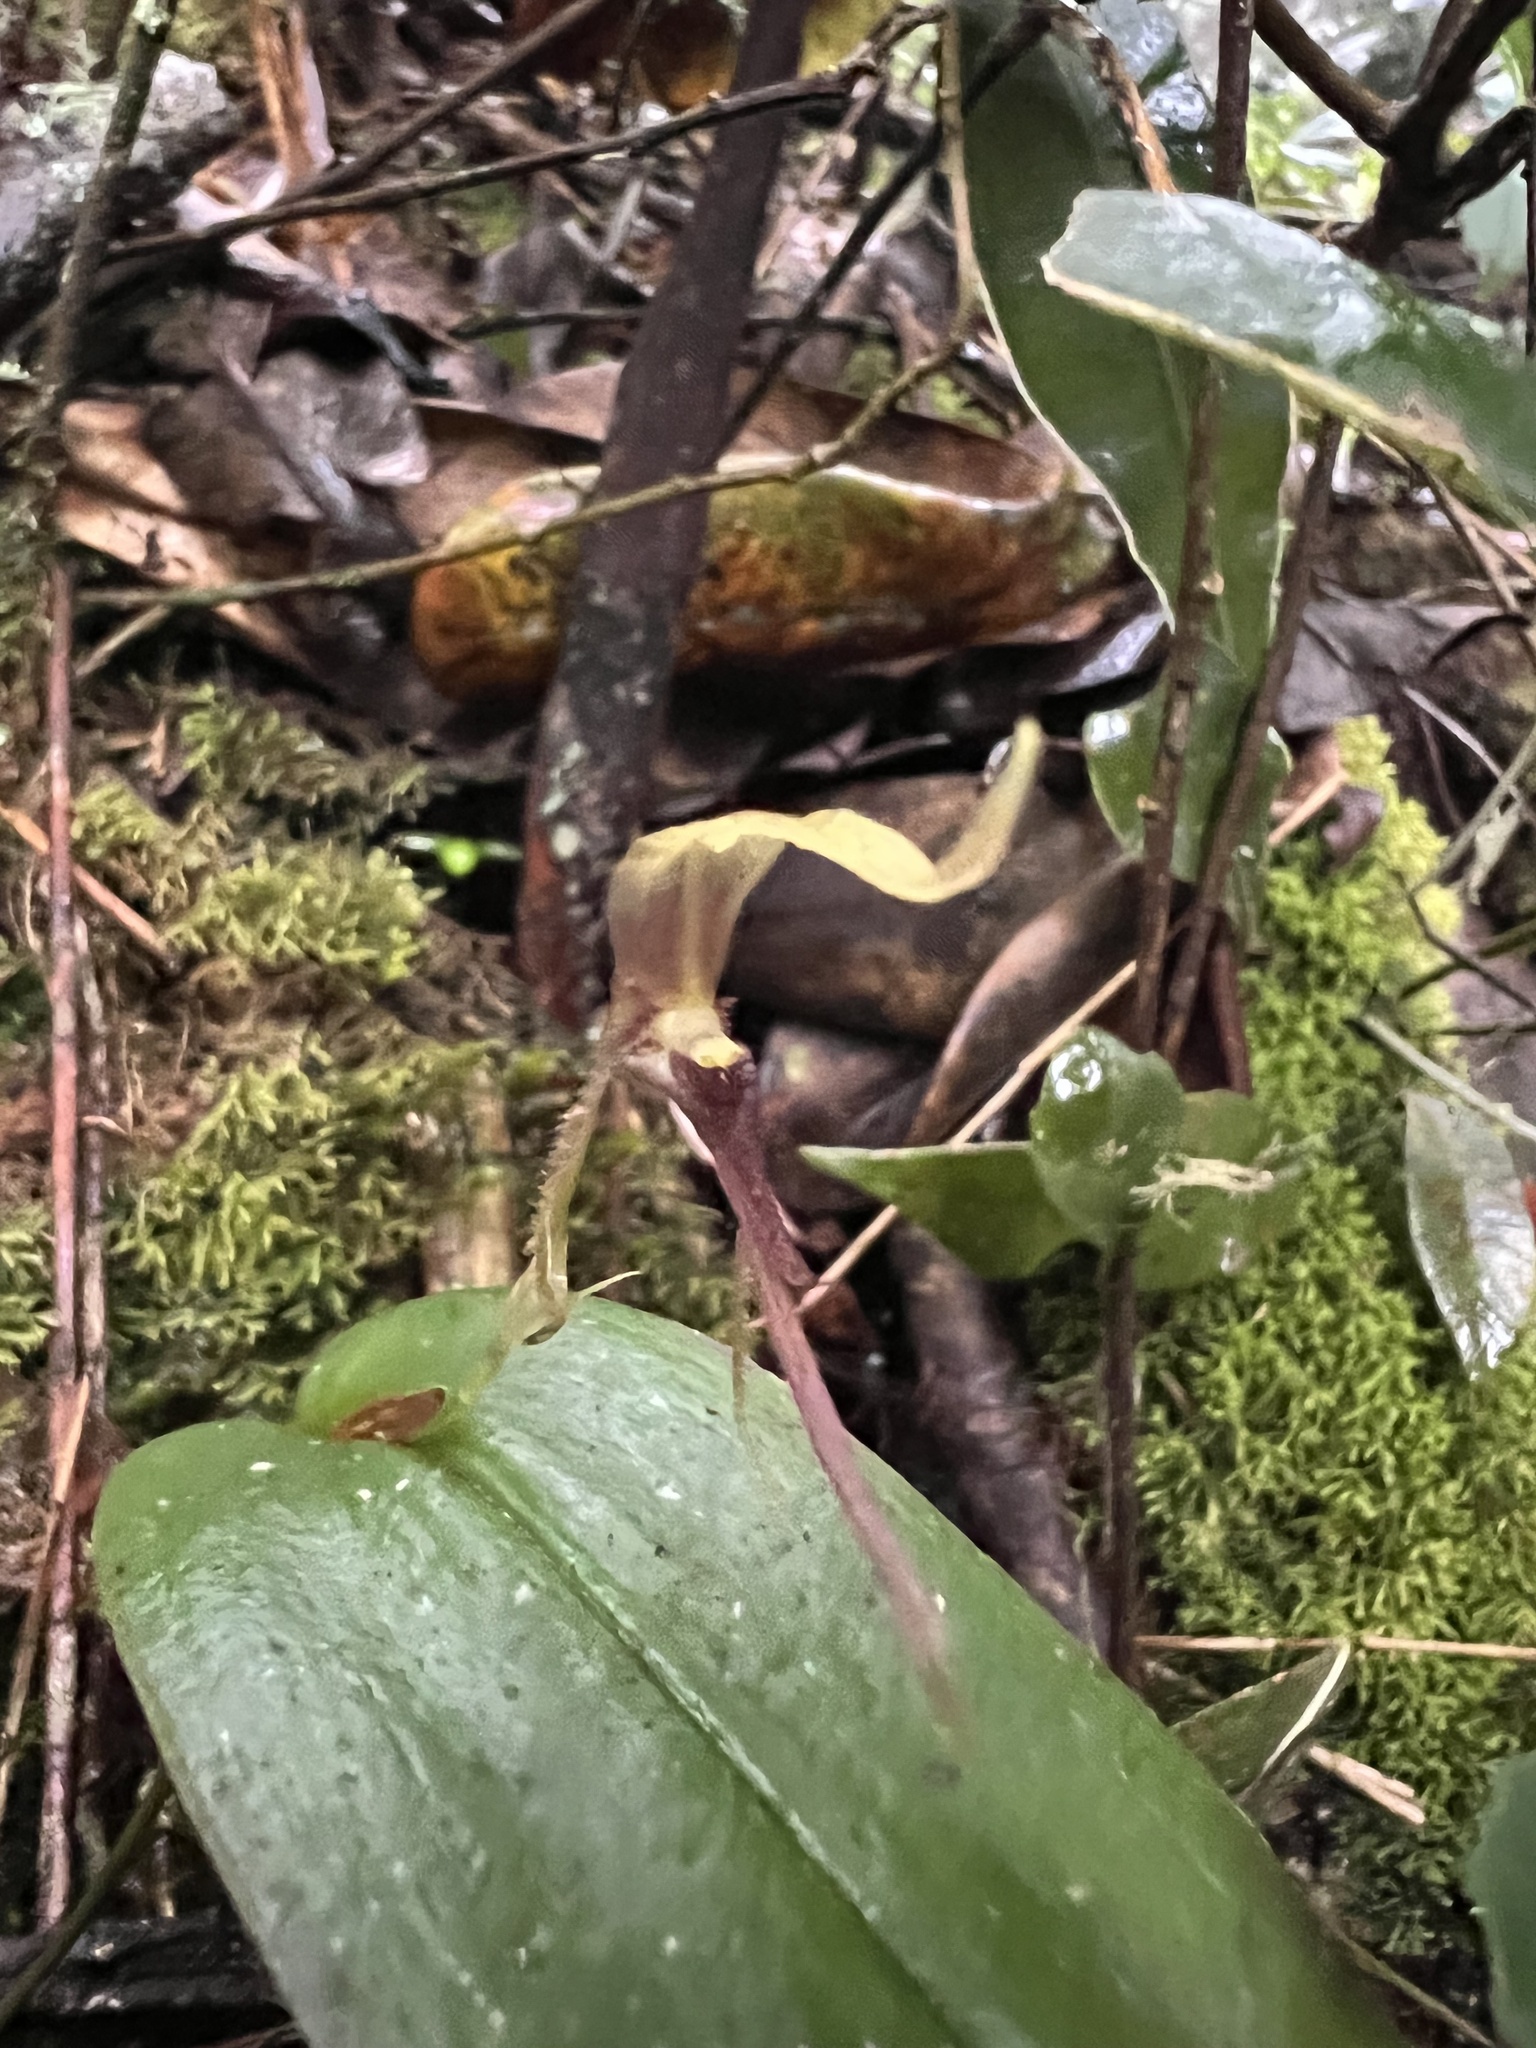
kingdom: Plantae
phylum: Tracheophyta
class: Liliopsida
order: Asparagales
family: Orchidaceae
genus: Pleurothallis
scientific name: Pleurothallis killipii
